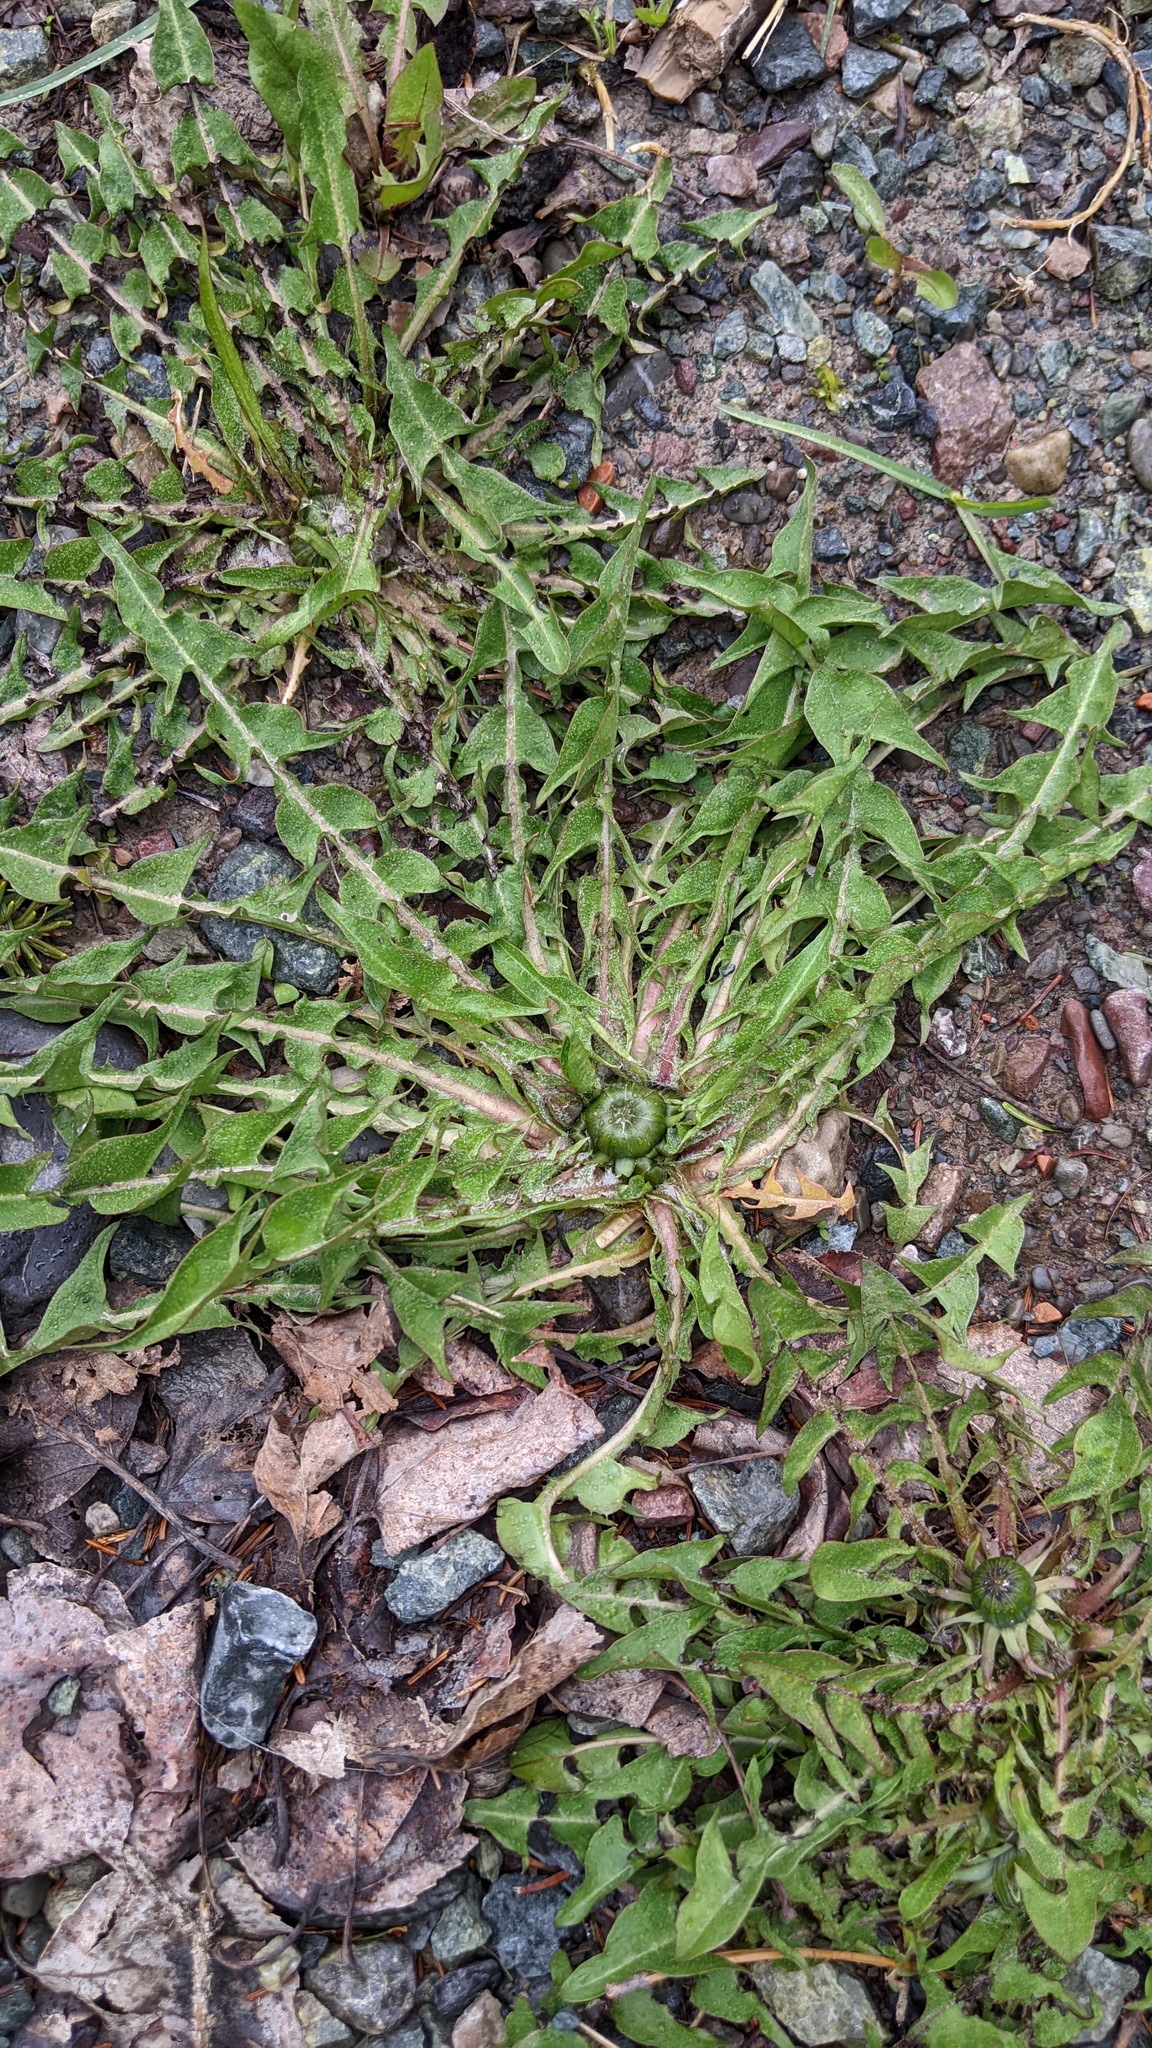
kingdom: Plantae
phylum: Tracheophyta
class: Magnoliopsida
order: Asterales
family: Asteraceae
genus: Taraxacum
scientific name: Taraxacum officinale
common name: Common dandelion
